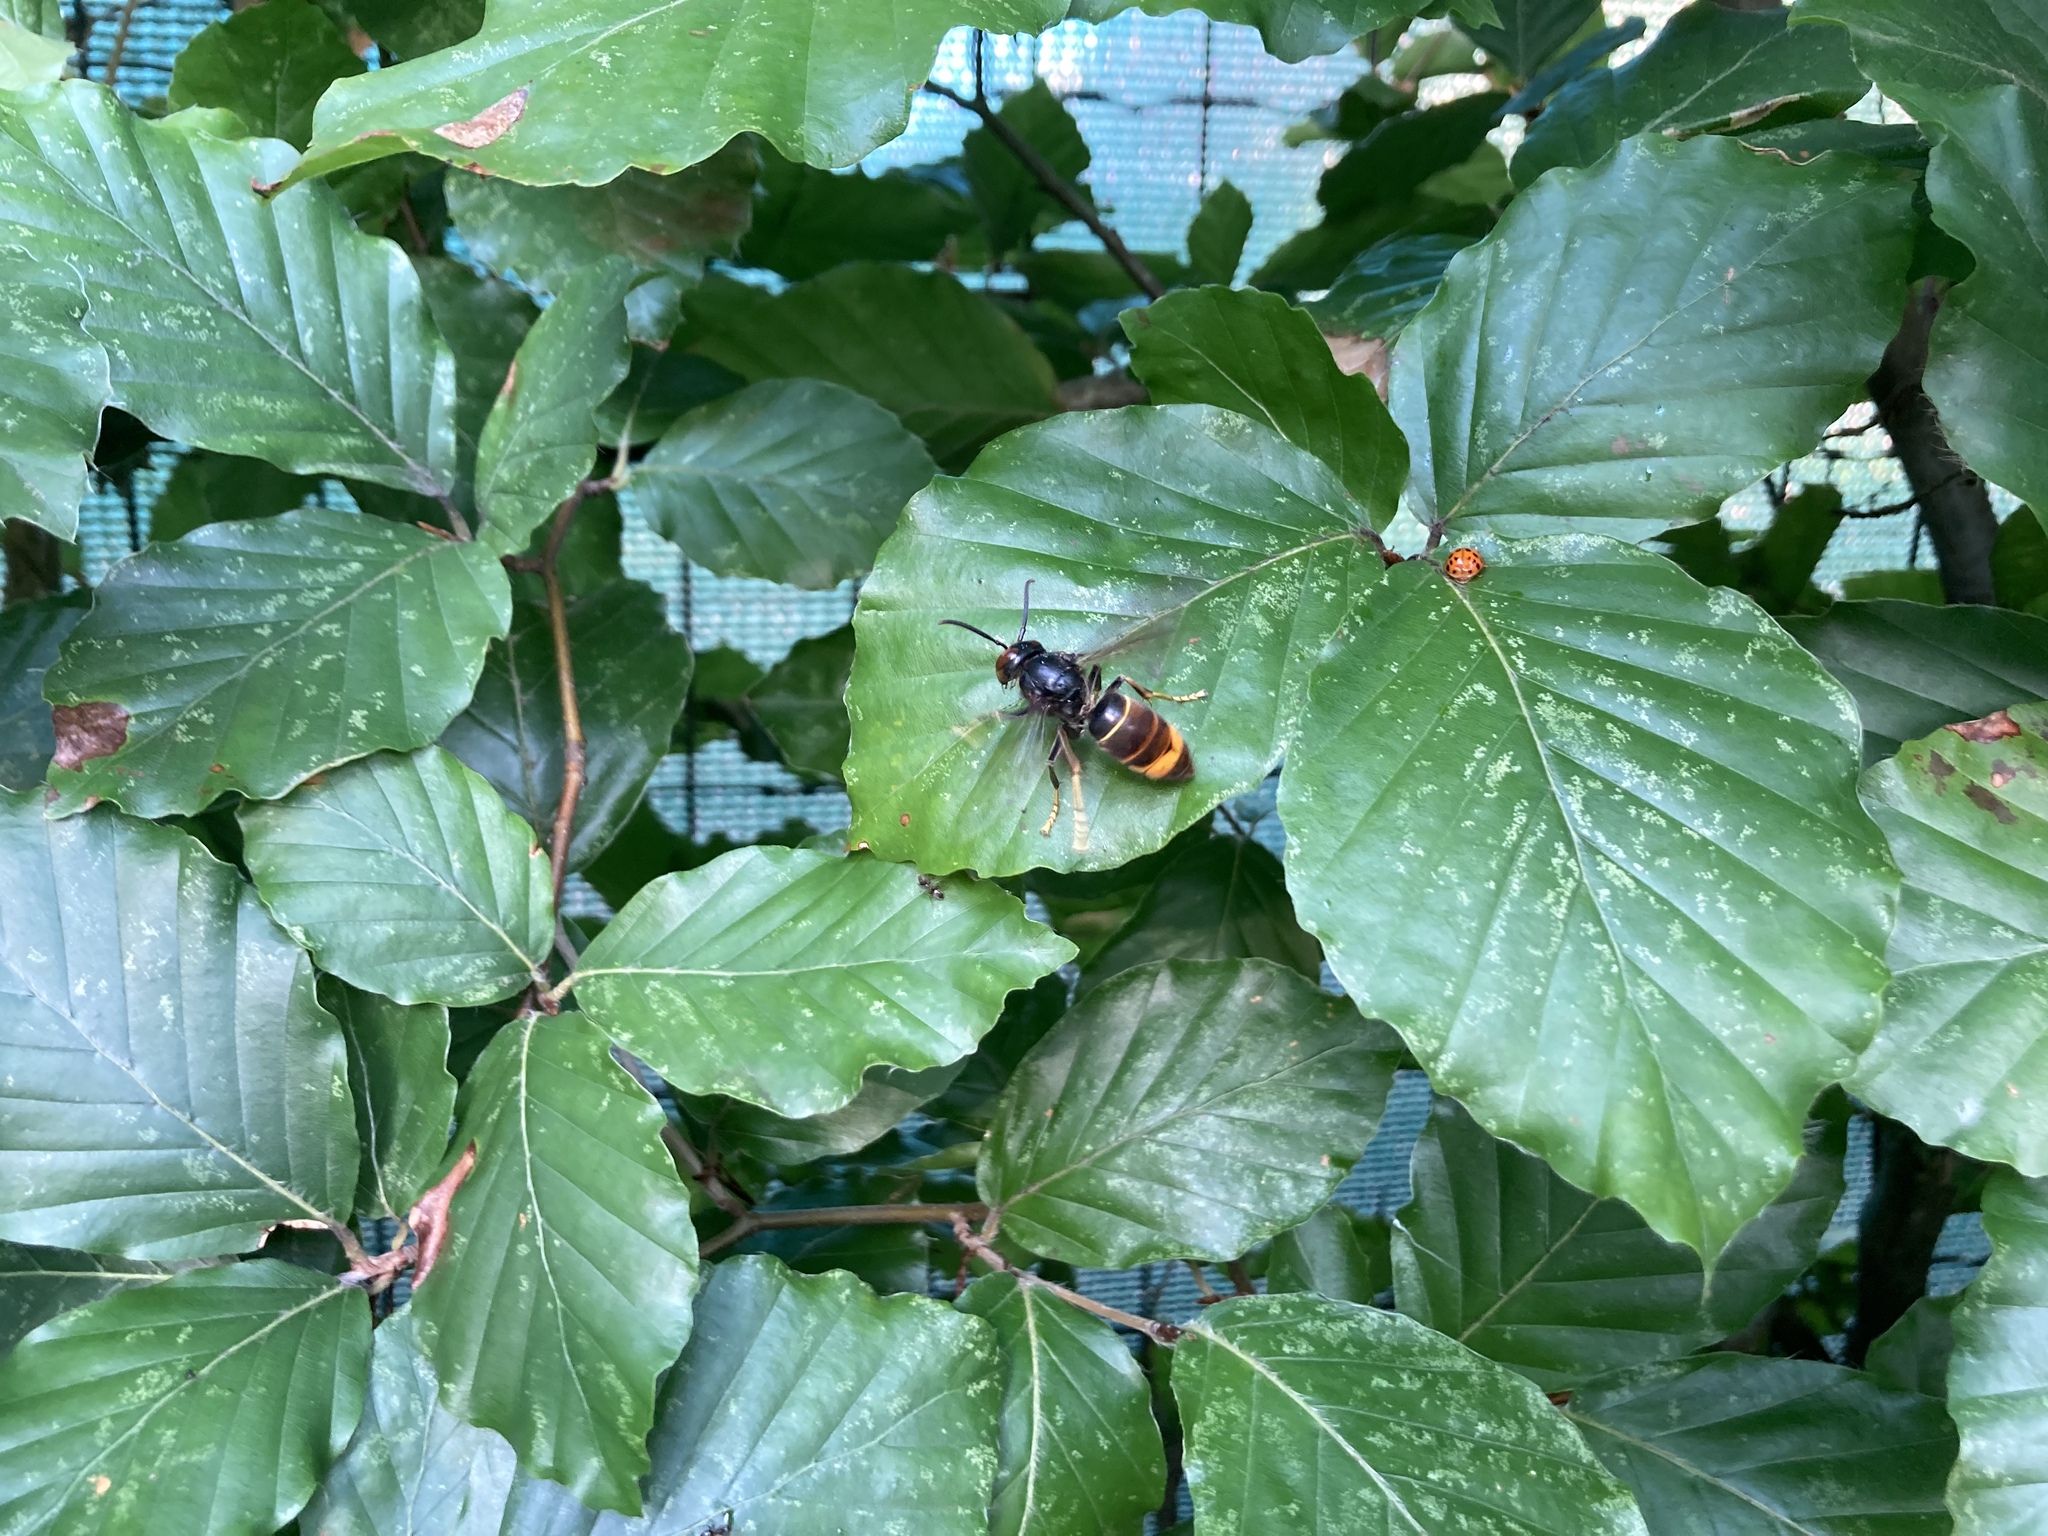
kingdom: Animalia
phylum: Arthropoda
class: Insecta
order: Hymenoptera
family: Vespidae
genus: Vespa
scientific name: Vespa velutina
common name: Asian hornet
